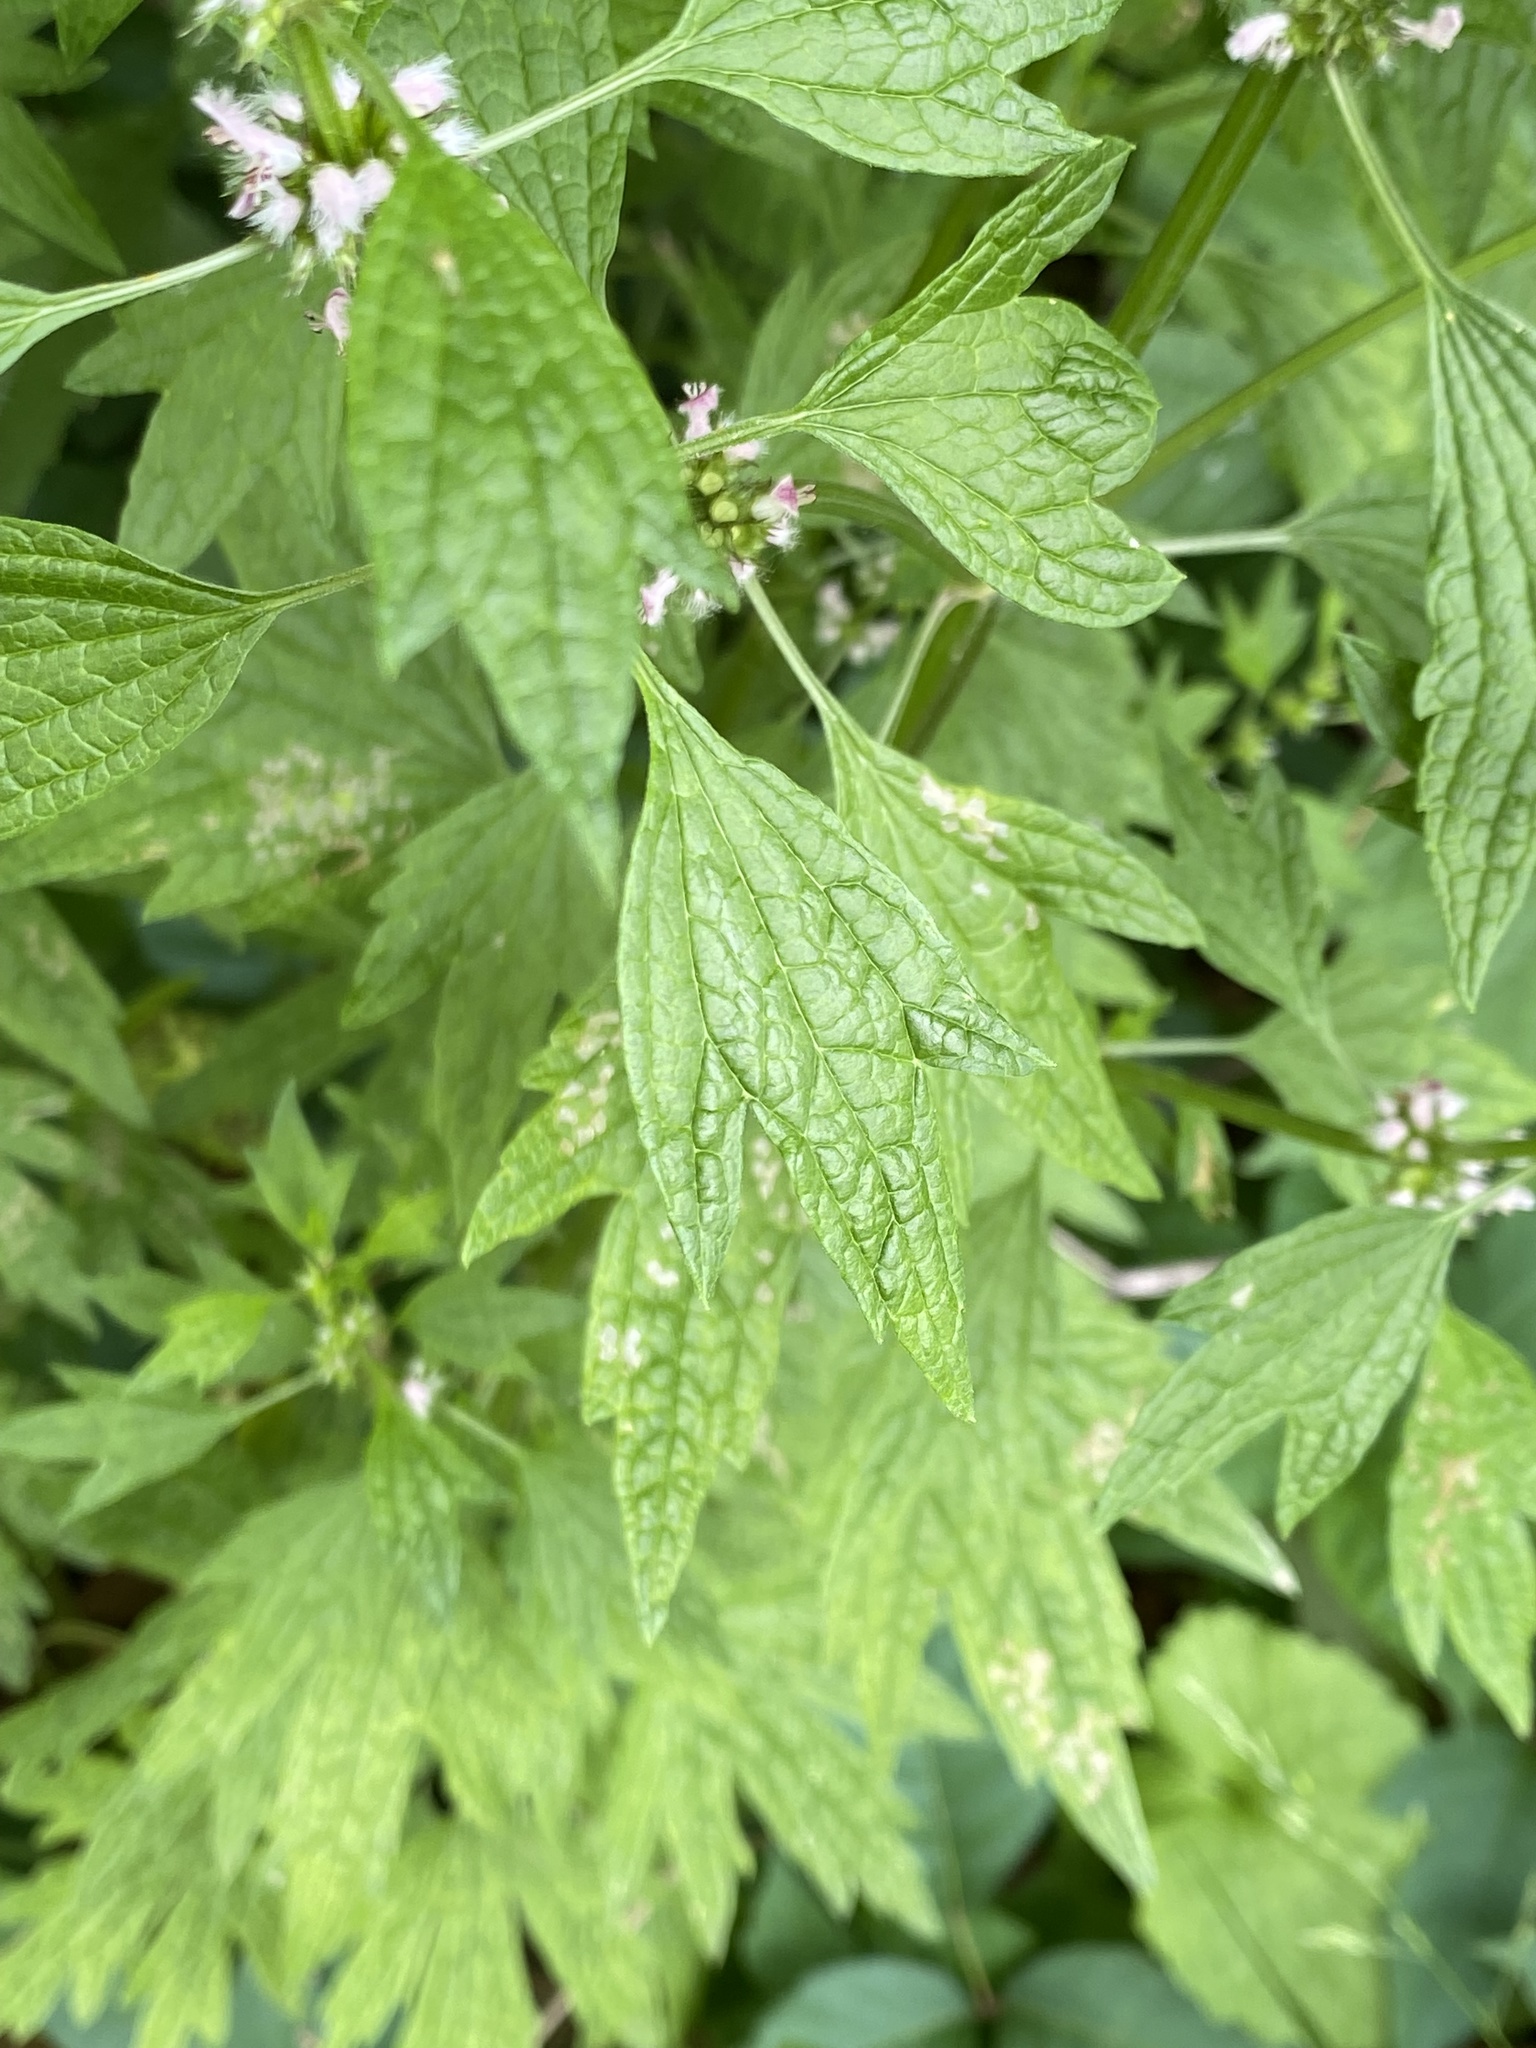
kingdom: Plantae
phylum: Tracheophyta
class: Magnoliopsida
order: Lamiales
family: Lamiaceae
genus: Leonurus
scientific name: Leonurus cardiaca
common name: Motherwort
